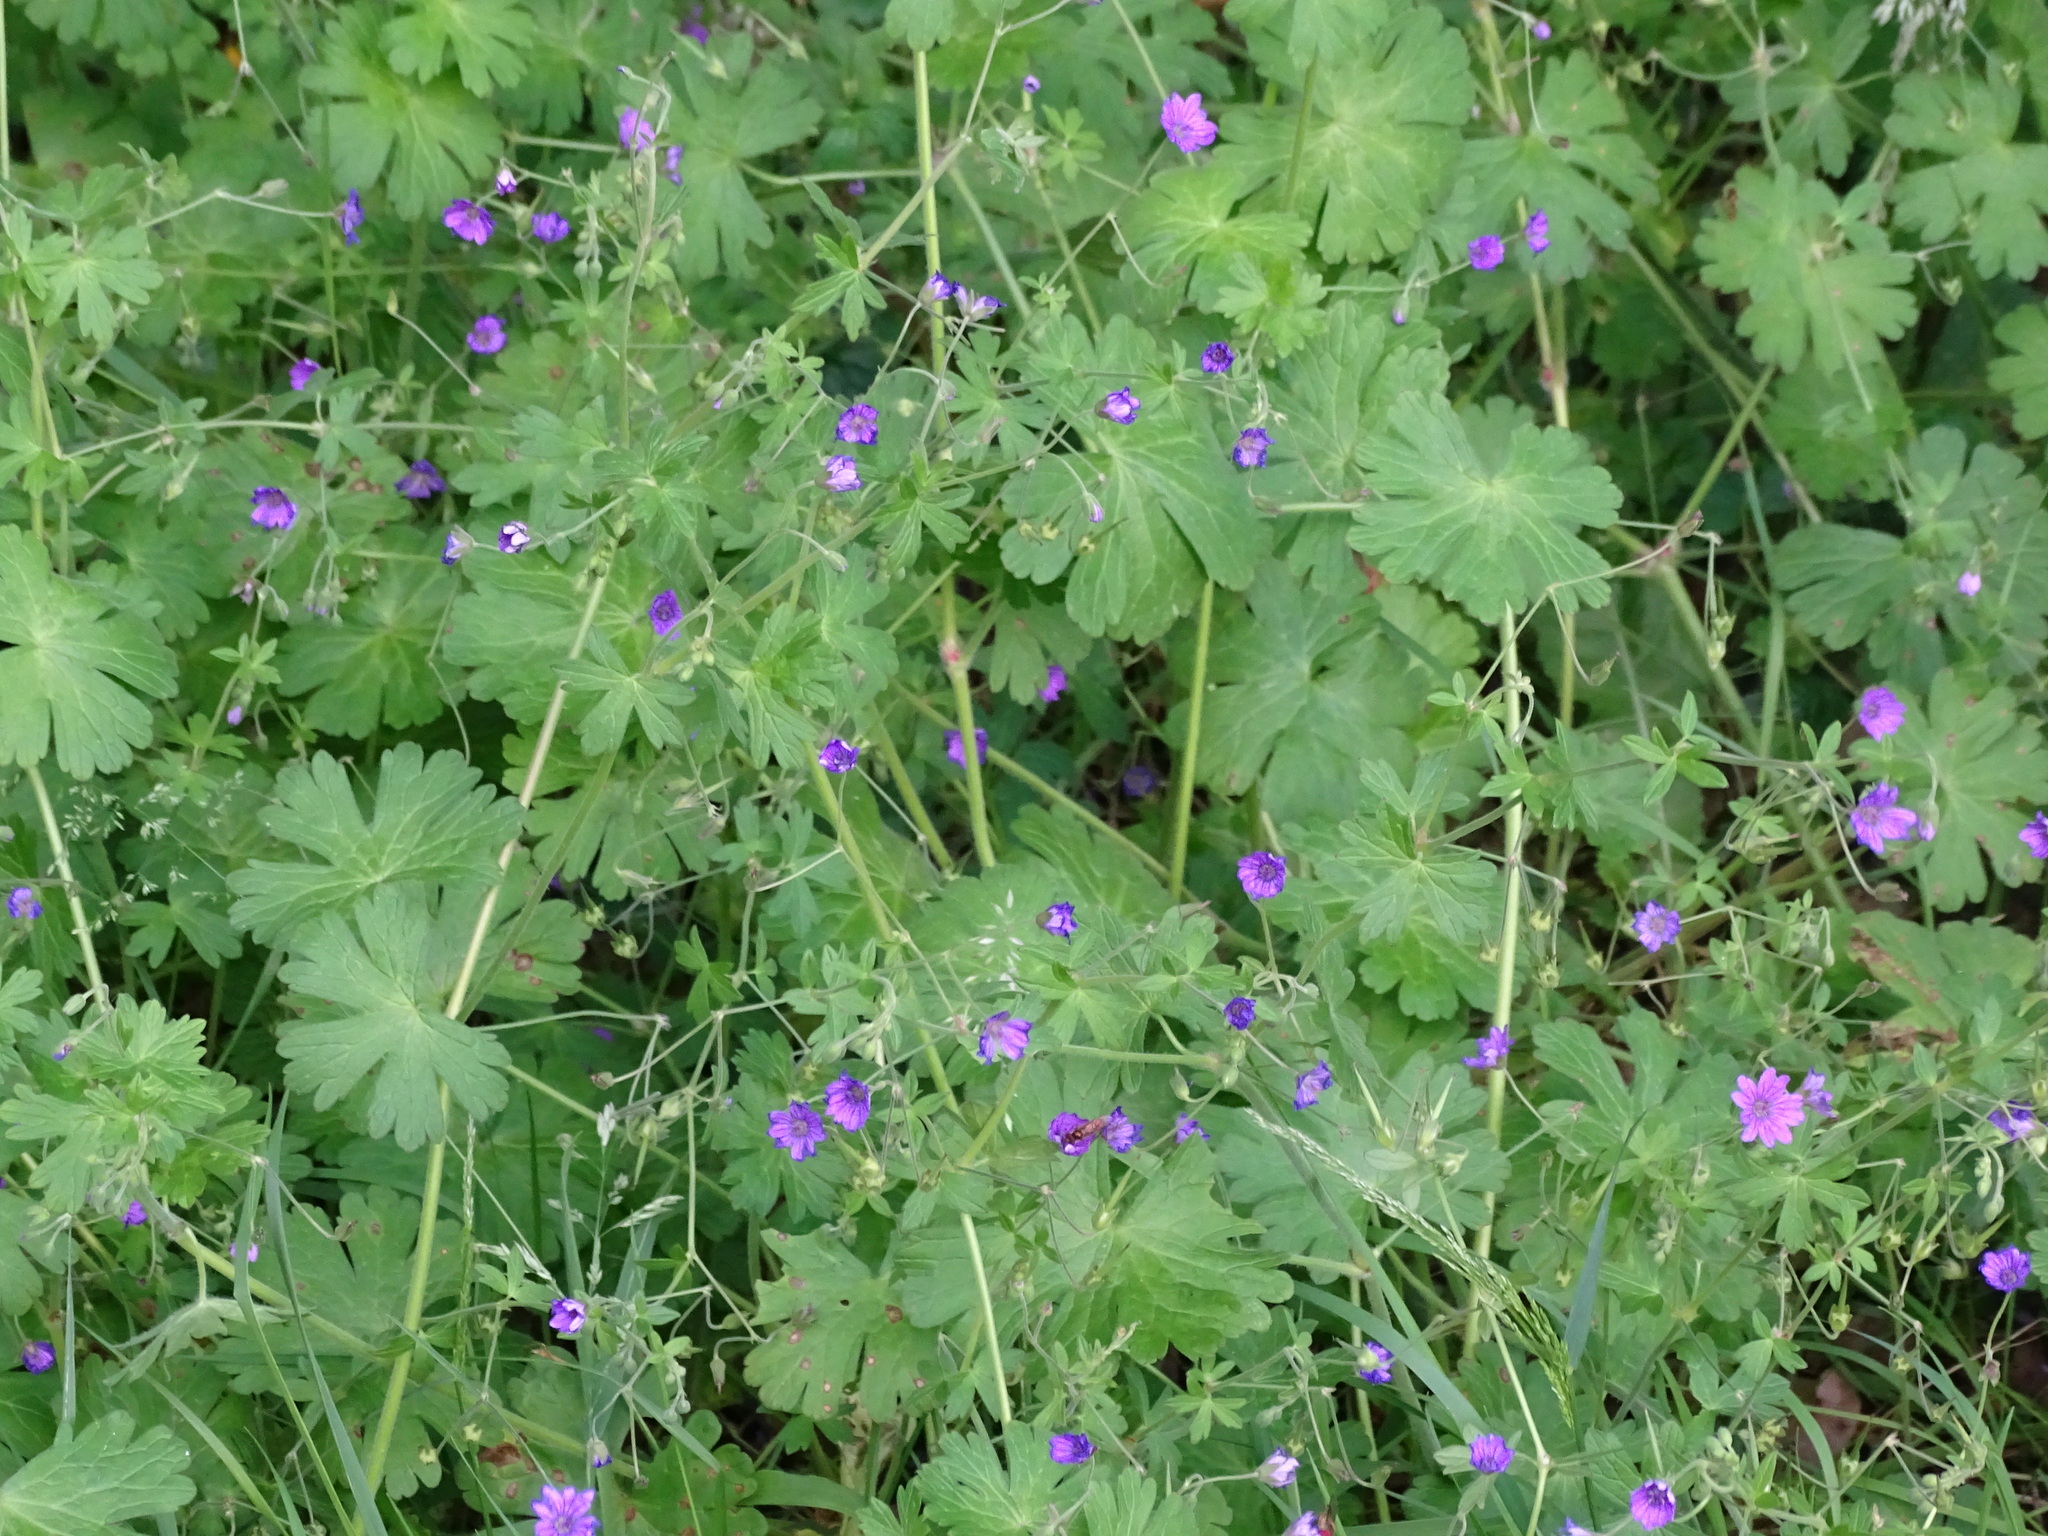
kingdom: Plantae
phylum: Tracheophyta
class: Magnoliopsida
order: Geraniales
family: Geraniaceae
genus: Geranium
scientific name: Geranium pyrenaicum
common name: Hedgerow crane's-bill
